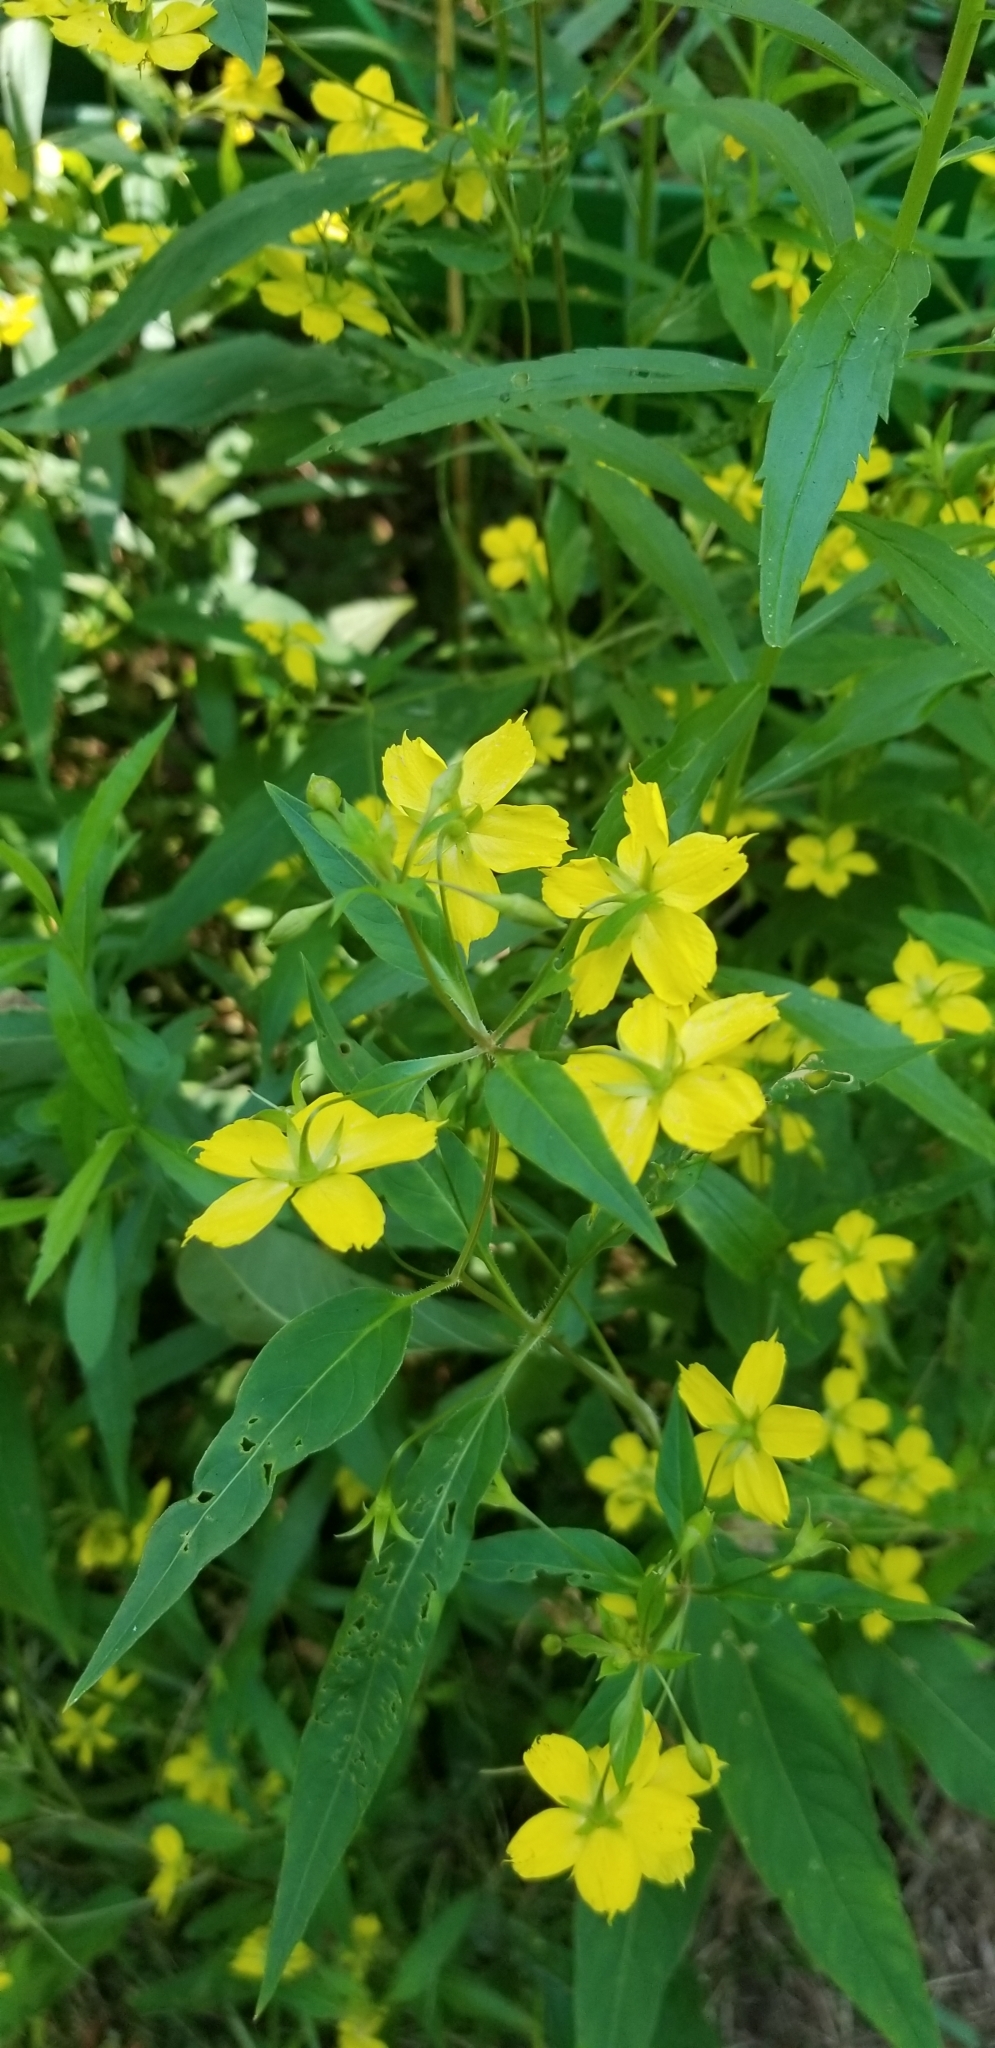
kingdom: Plantae
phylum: Tracheophyta
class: Magnoliopsida
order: Ericales
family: Primulaceae
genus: Lysimachia
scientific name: Lysimachia ciliata
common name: Fringed loosestrife
